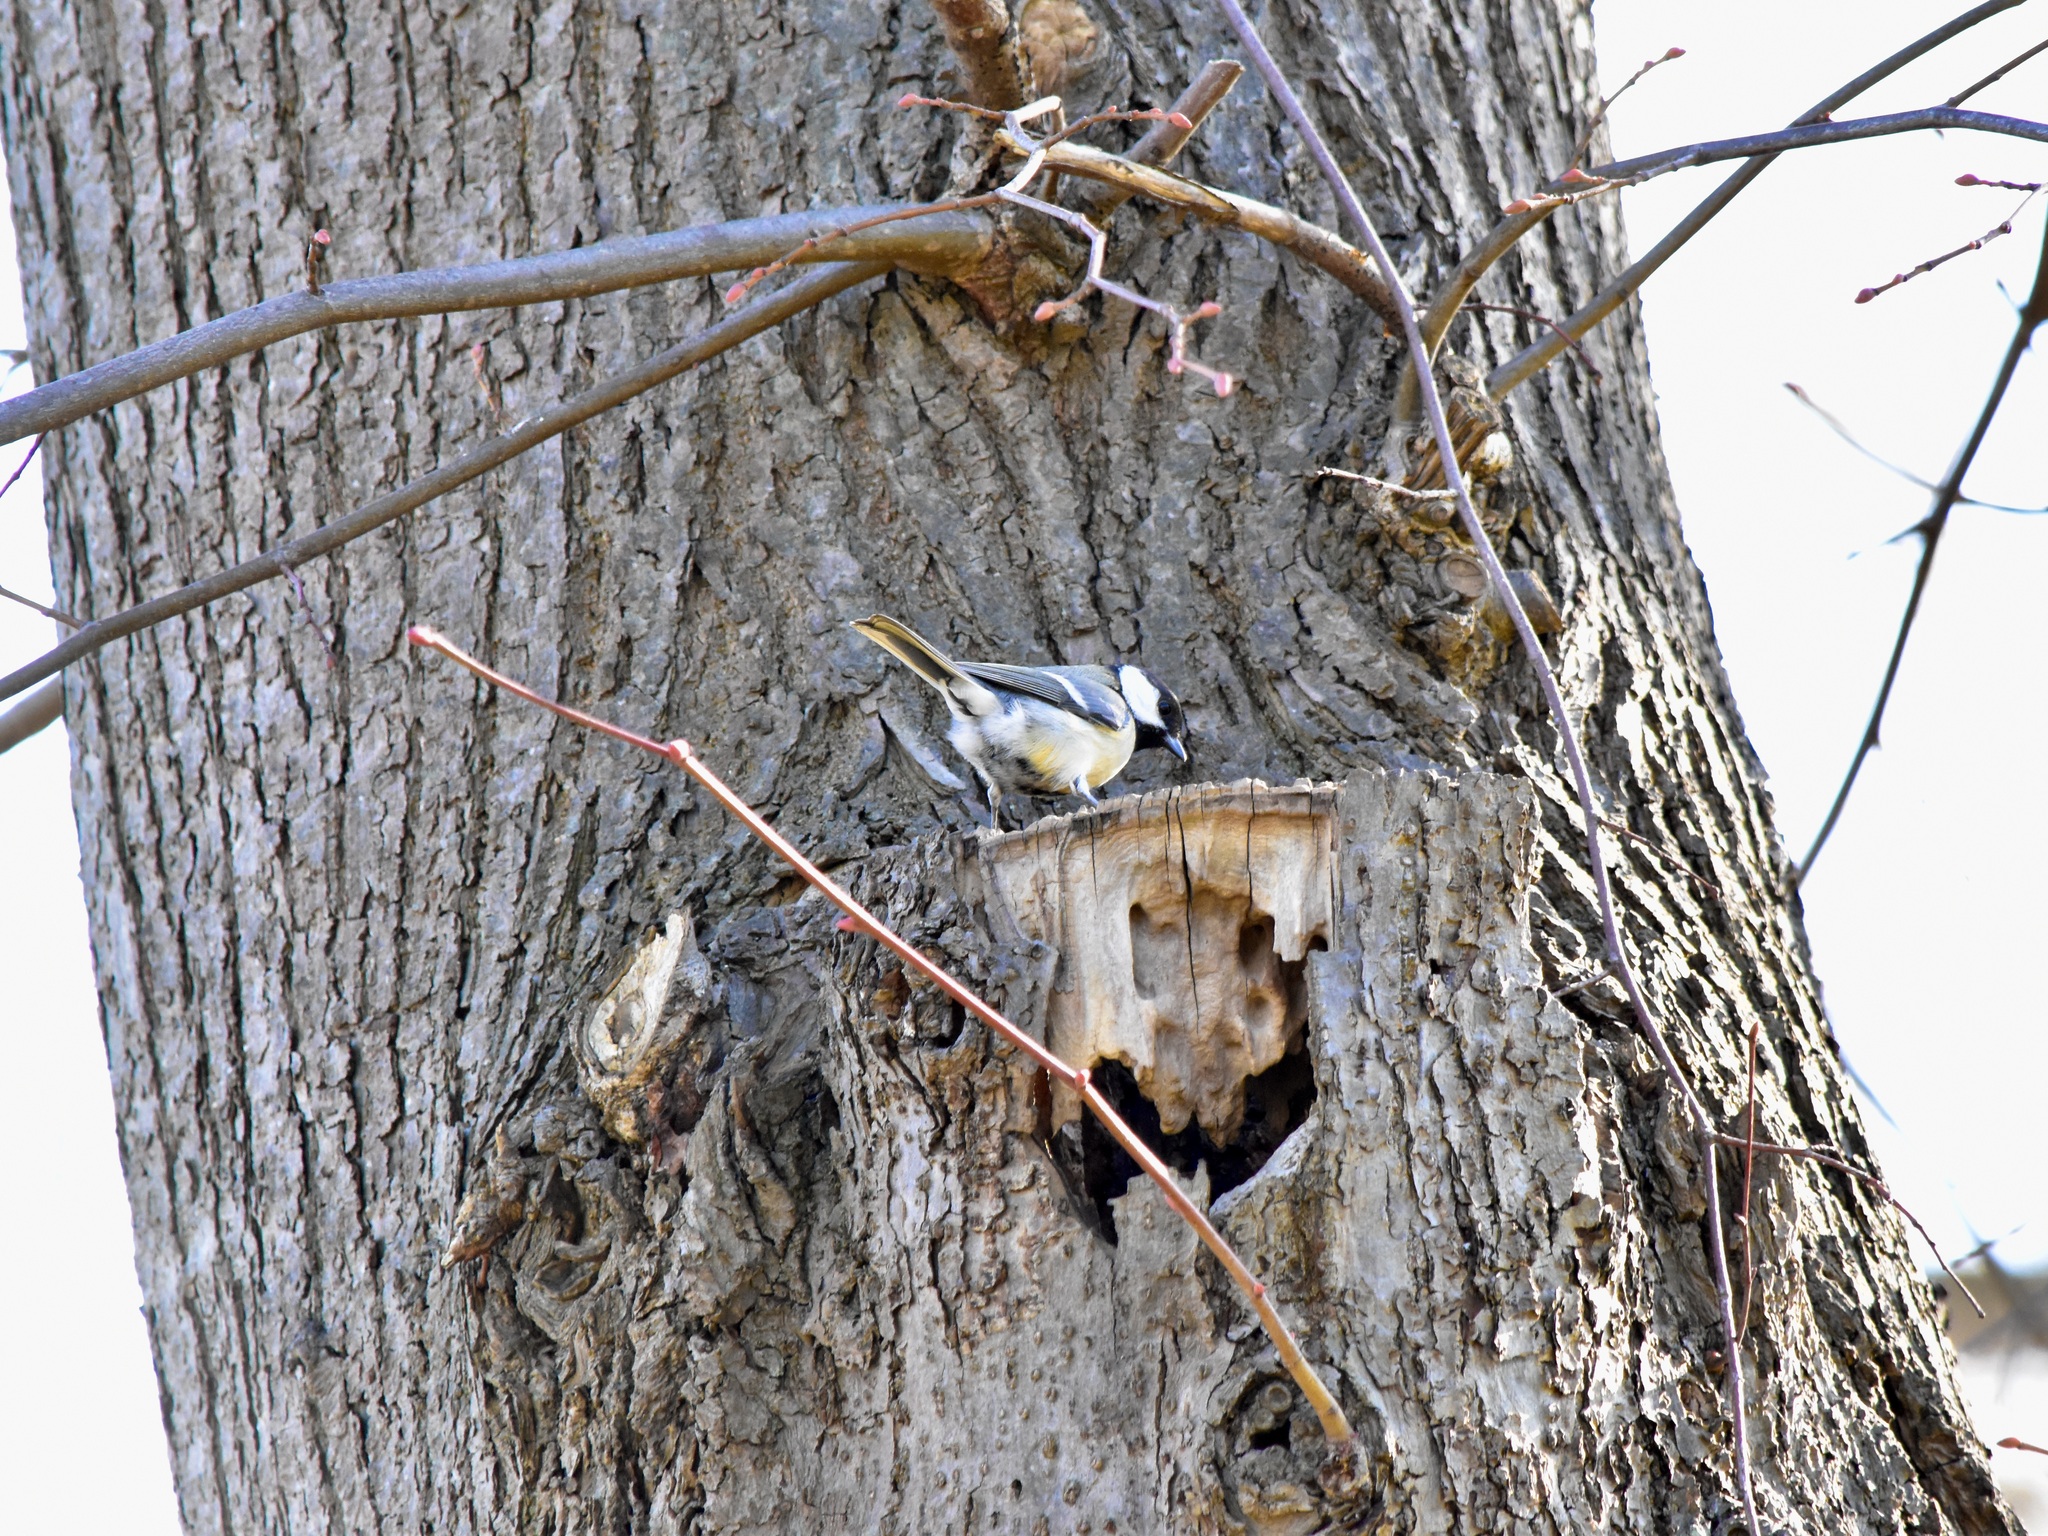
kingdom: Animalia
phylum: Chordata
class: Aves
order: Passeriformes
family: Paridae
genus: Parus
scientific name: Parus major
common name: Great tit
